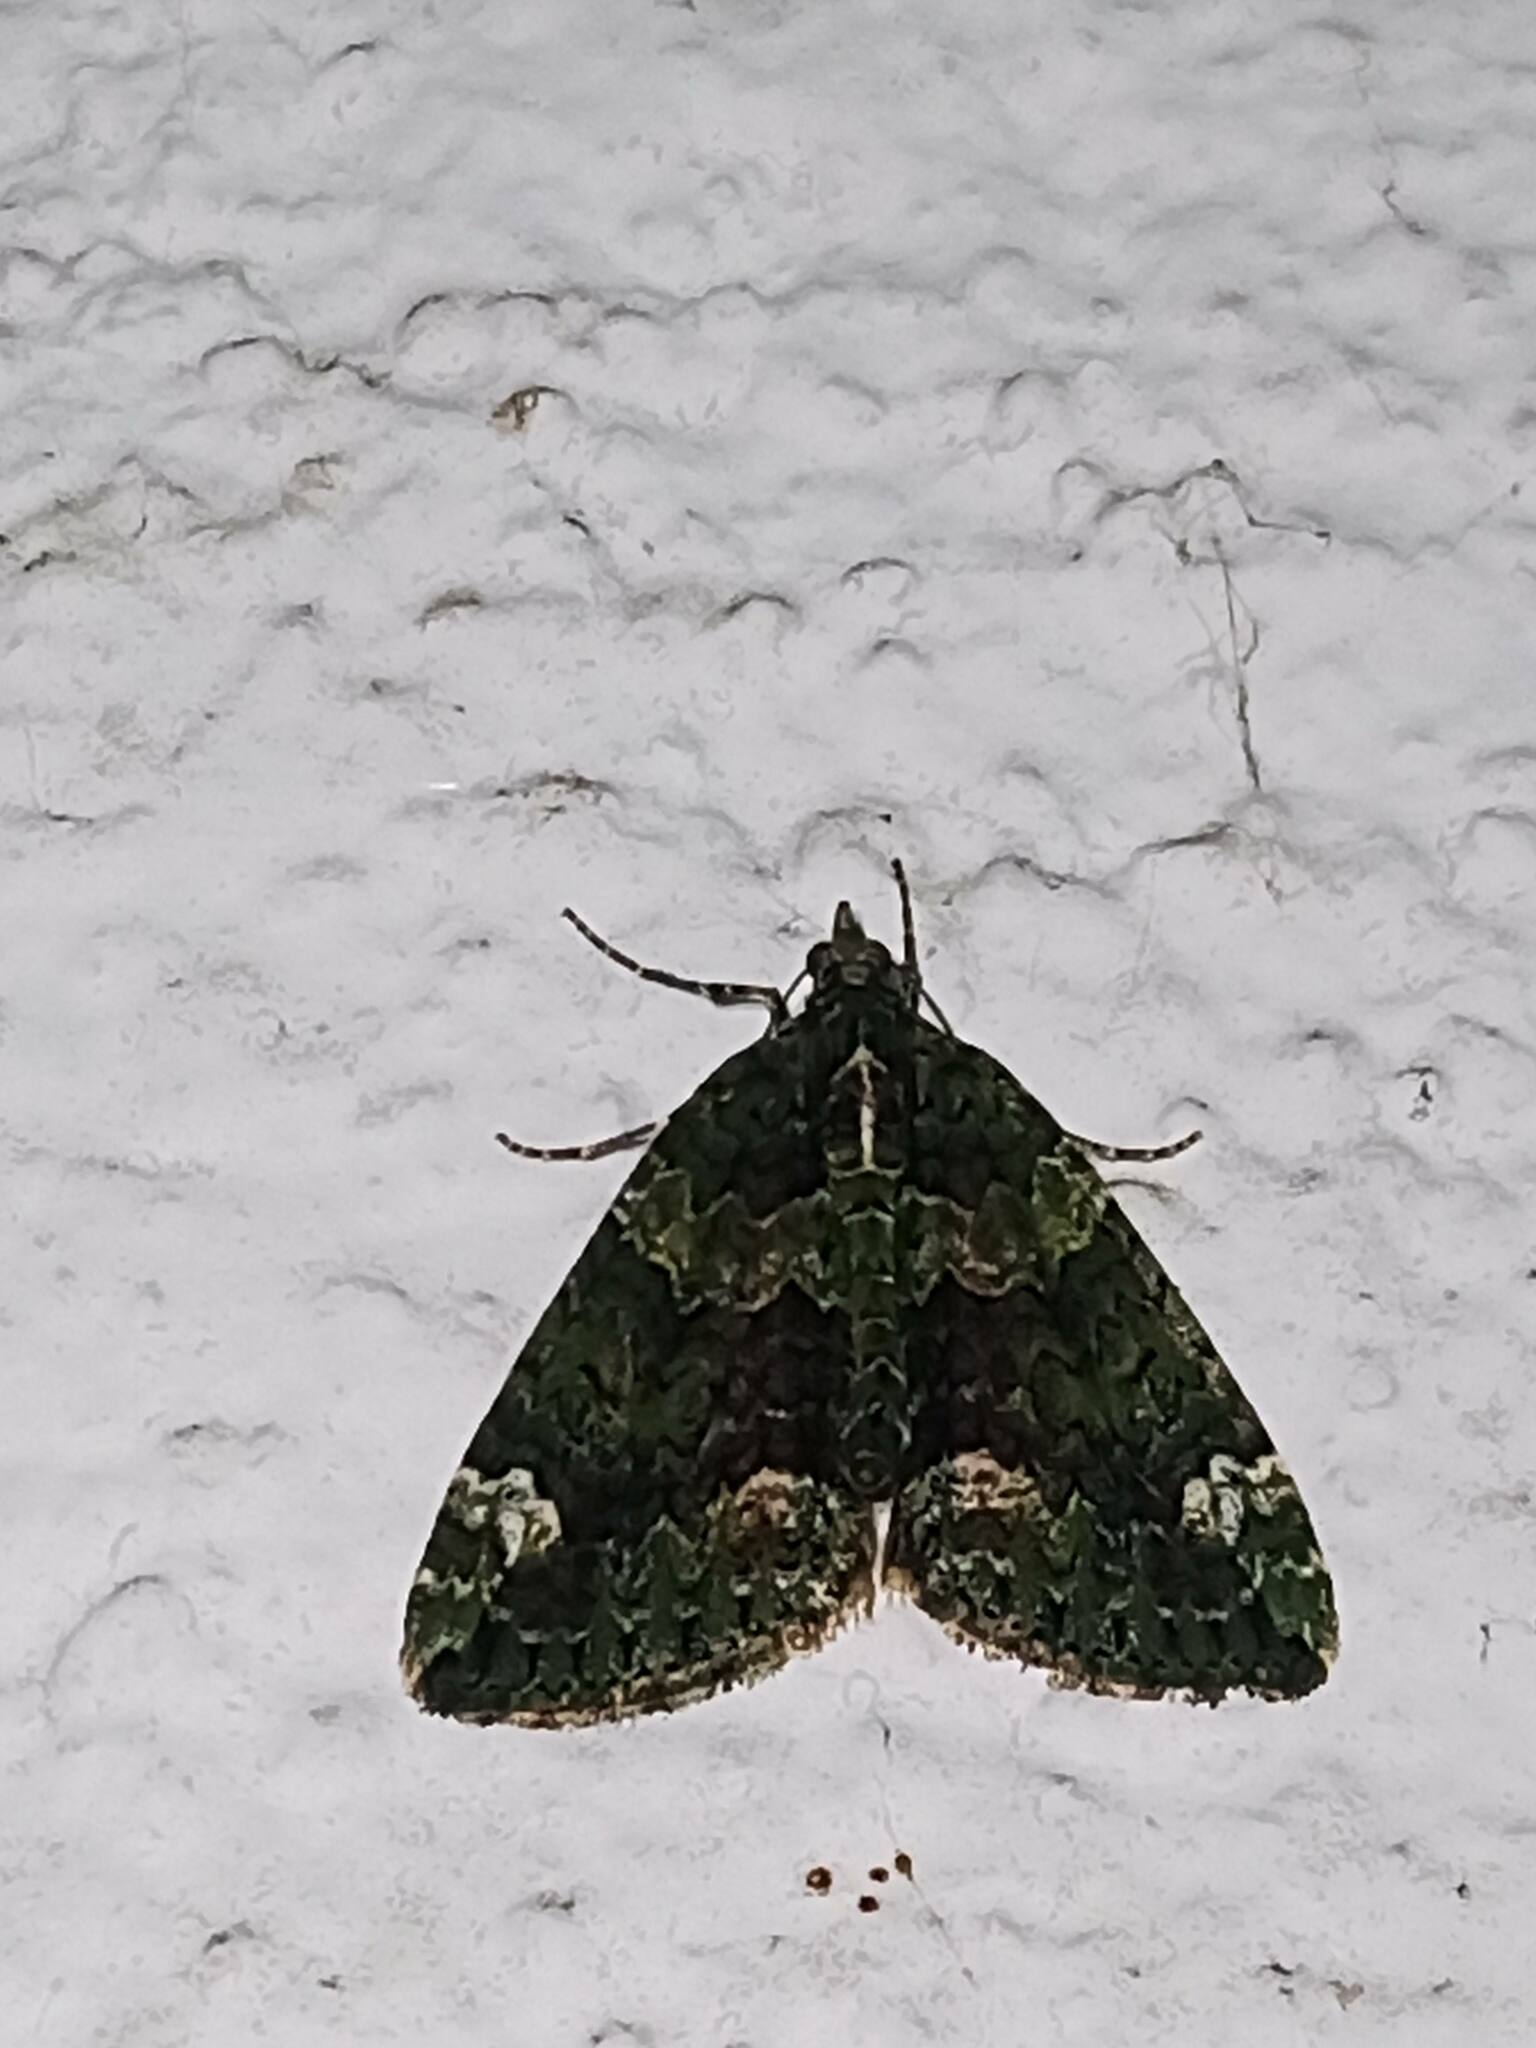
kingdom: Animalia
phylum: Arthropoda
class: Insecta
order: Lepidoptera
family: Geometridae
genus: Chloroclysta
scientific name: Chloroclysta siterata
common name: Red-green carpet
